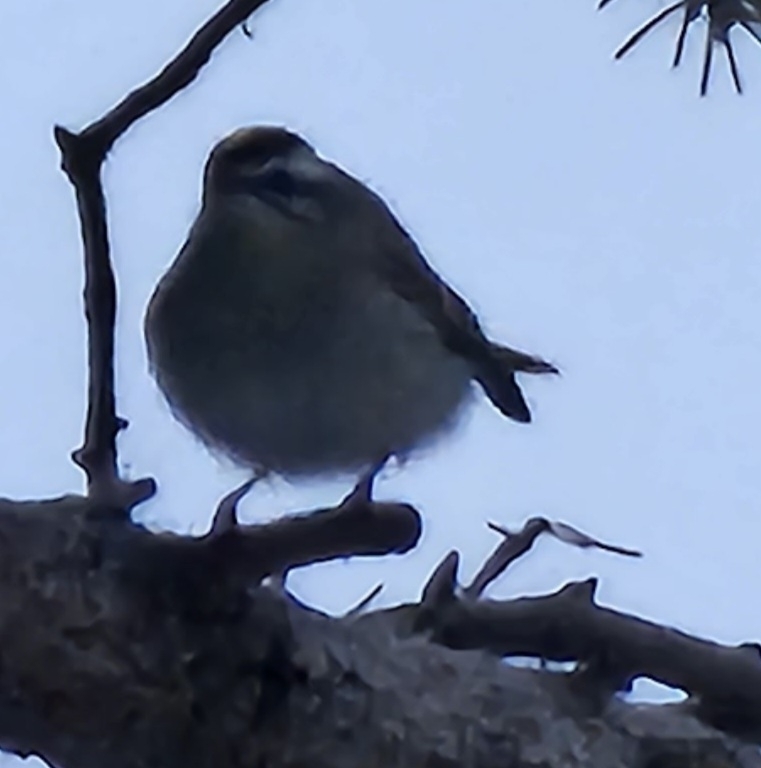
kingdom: Animalia
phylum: Chordata
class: Aves
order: Passeriformes
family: Regulidae
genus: Regulus
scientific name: Regulus satrapa
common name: Golden-crowned kinglet
